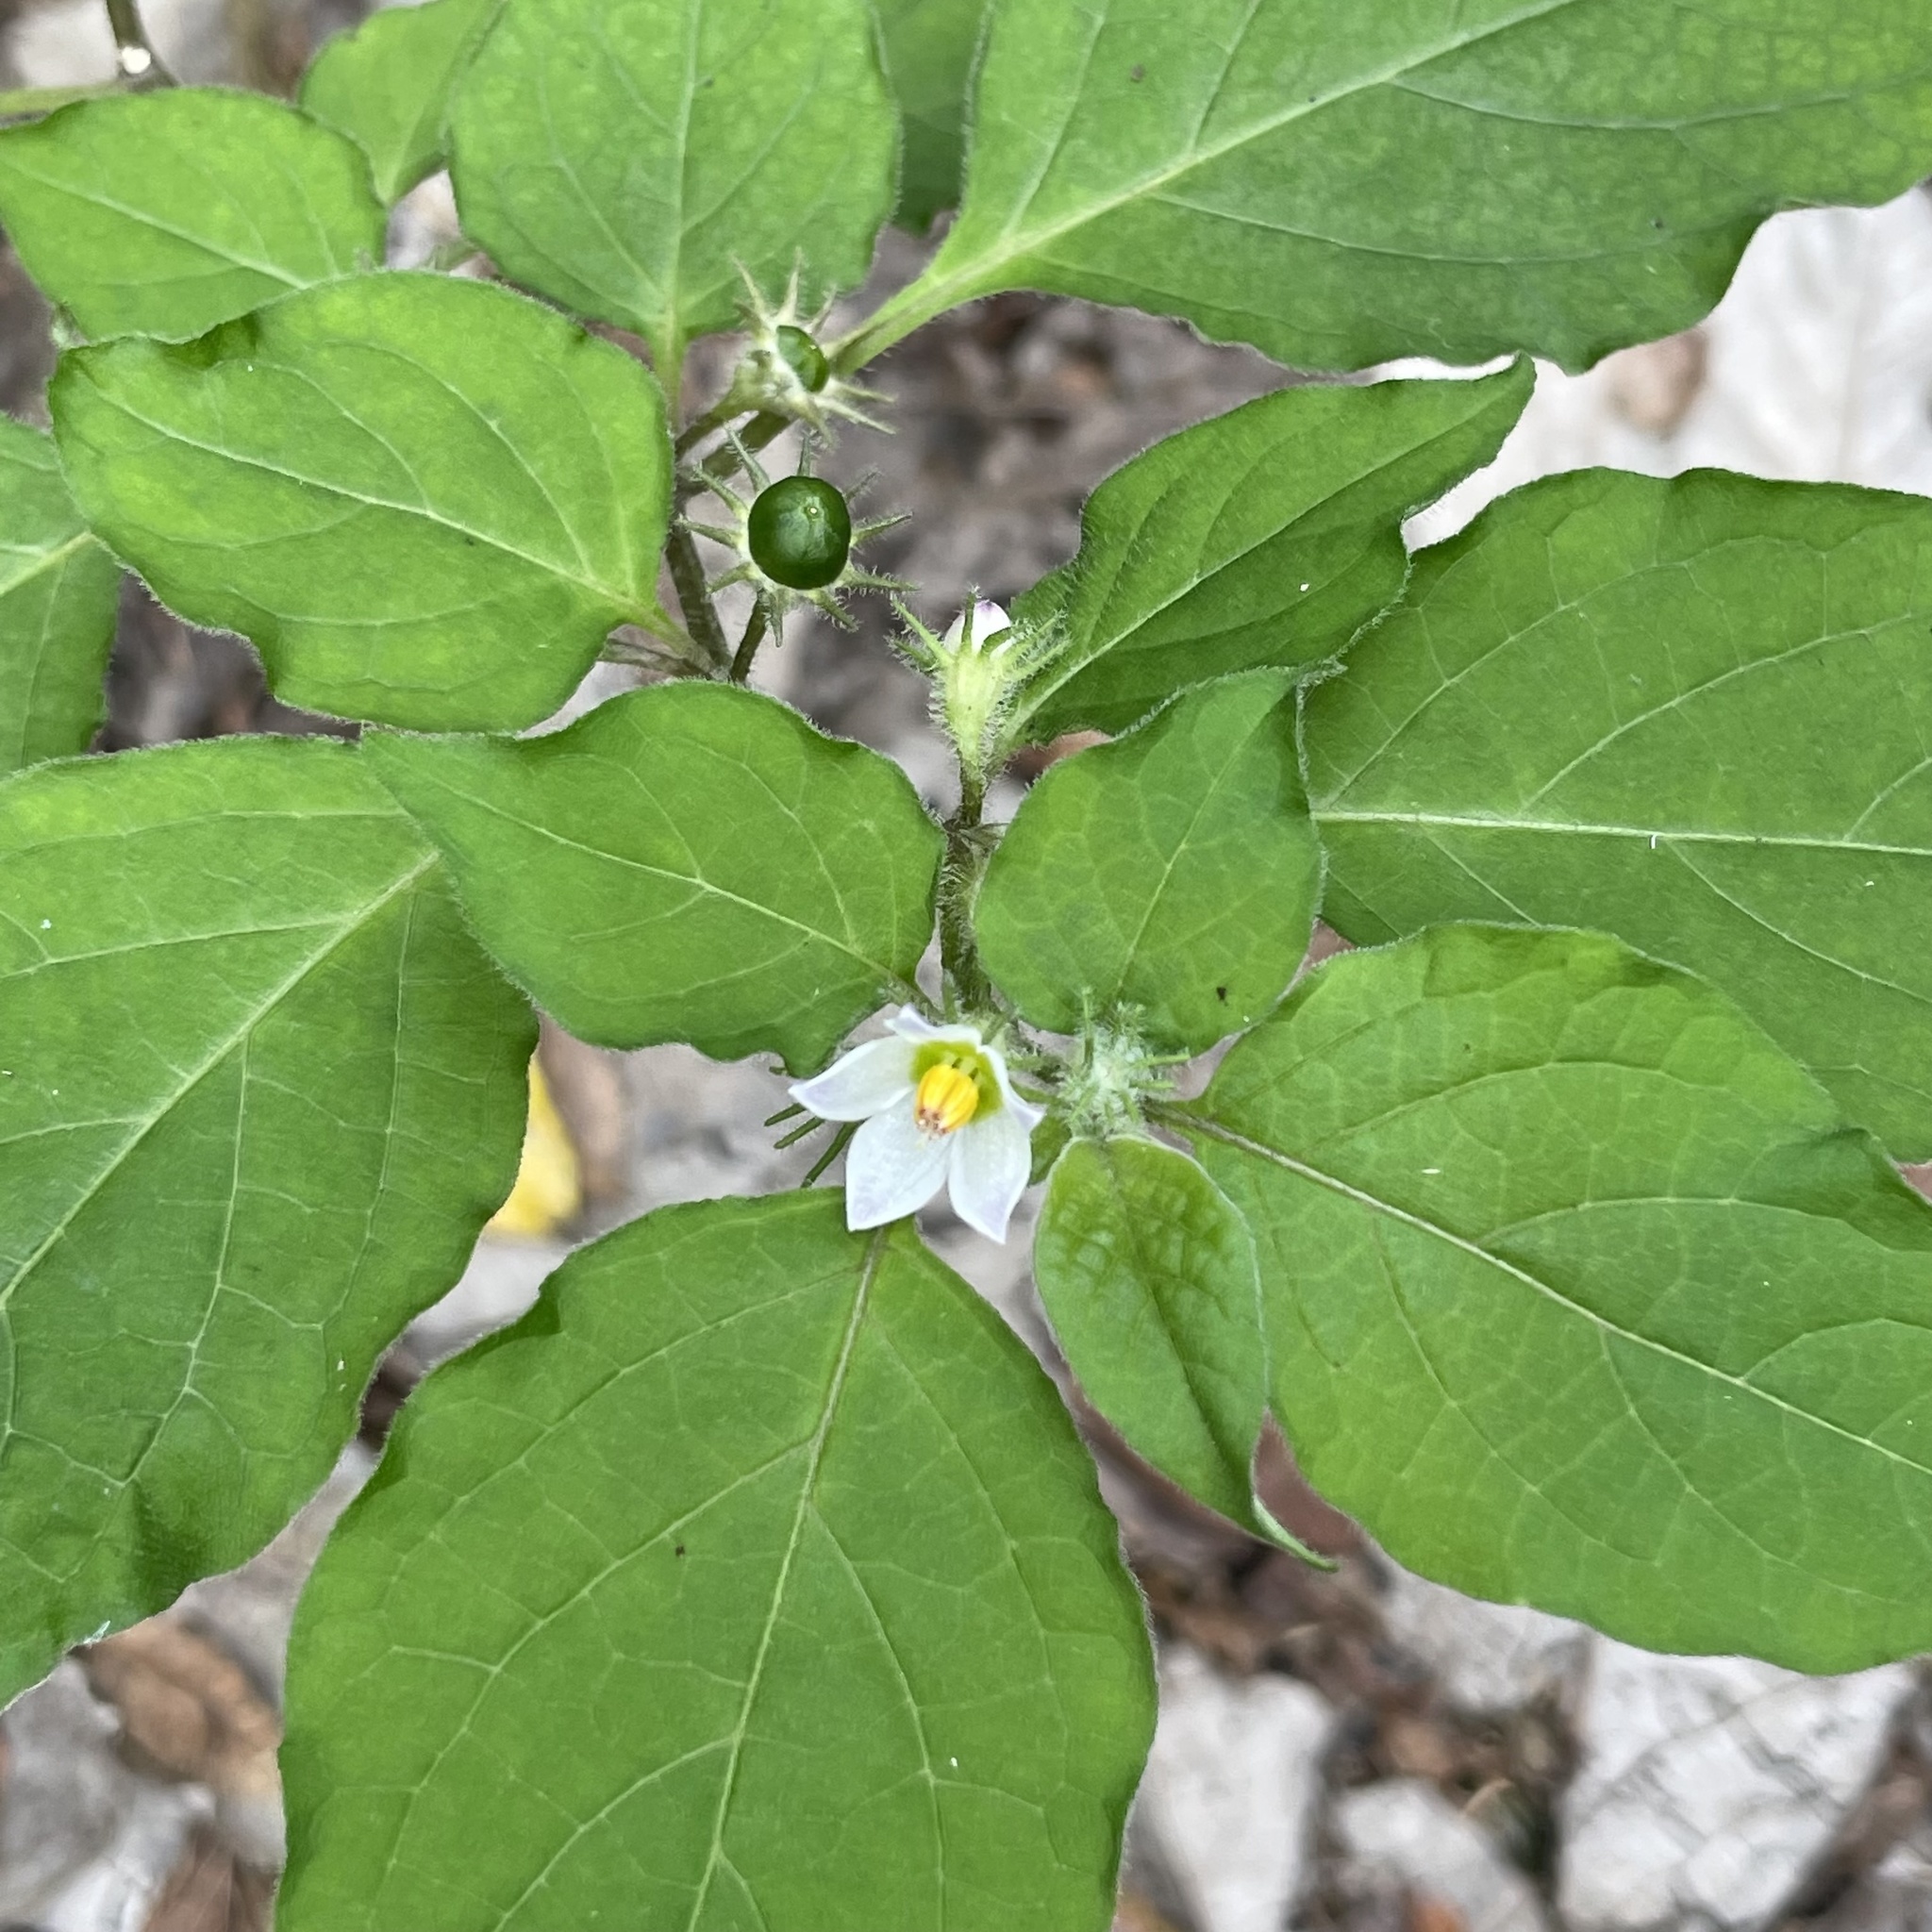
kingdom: Plantae
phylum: Tracheophyta
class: Magnoliopsida
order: Solanales
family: Solanaceae
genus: Lycianthes
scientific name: Lycianthes biflora
